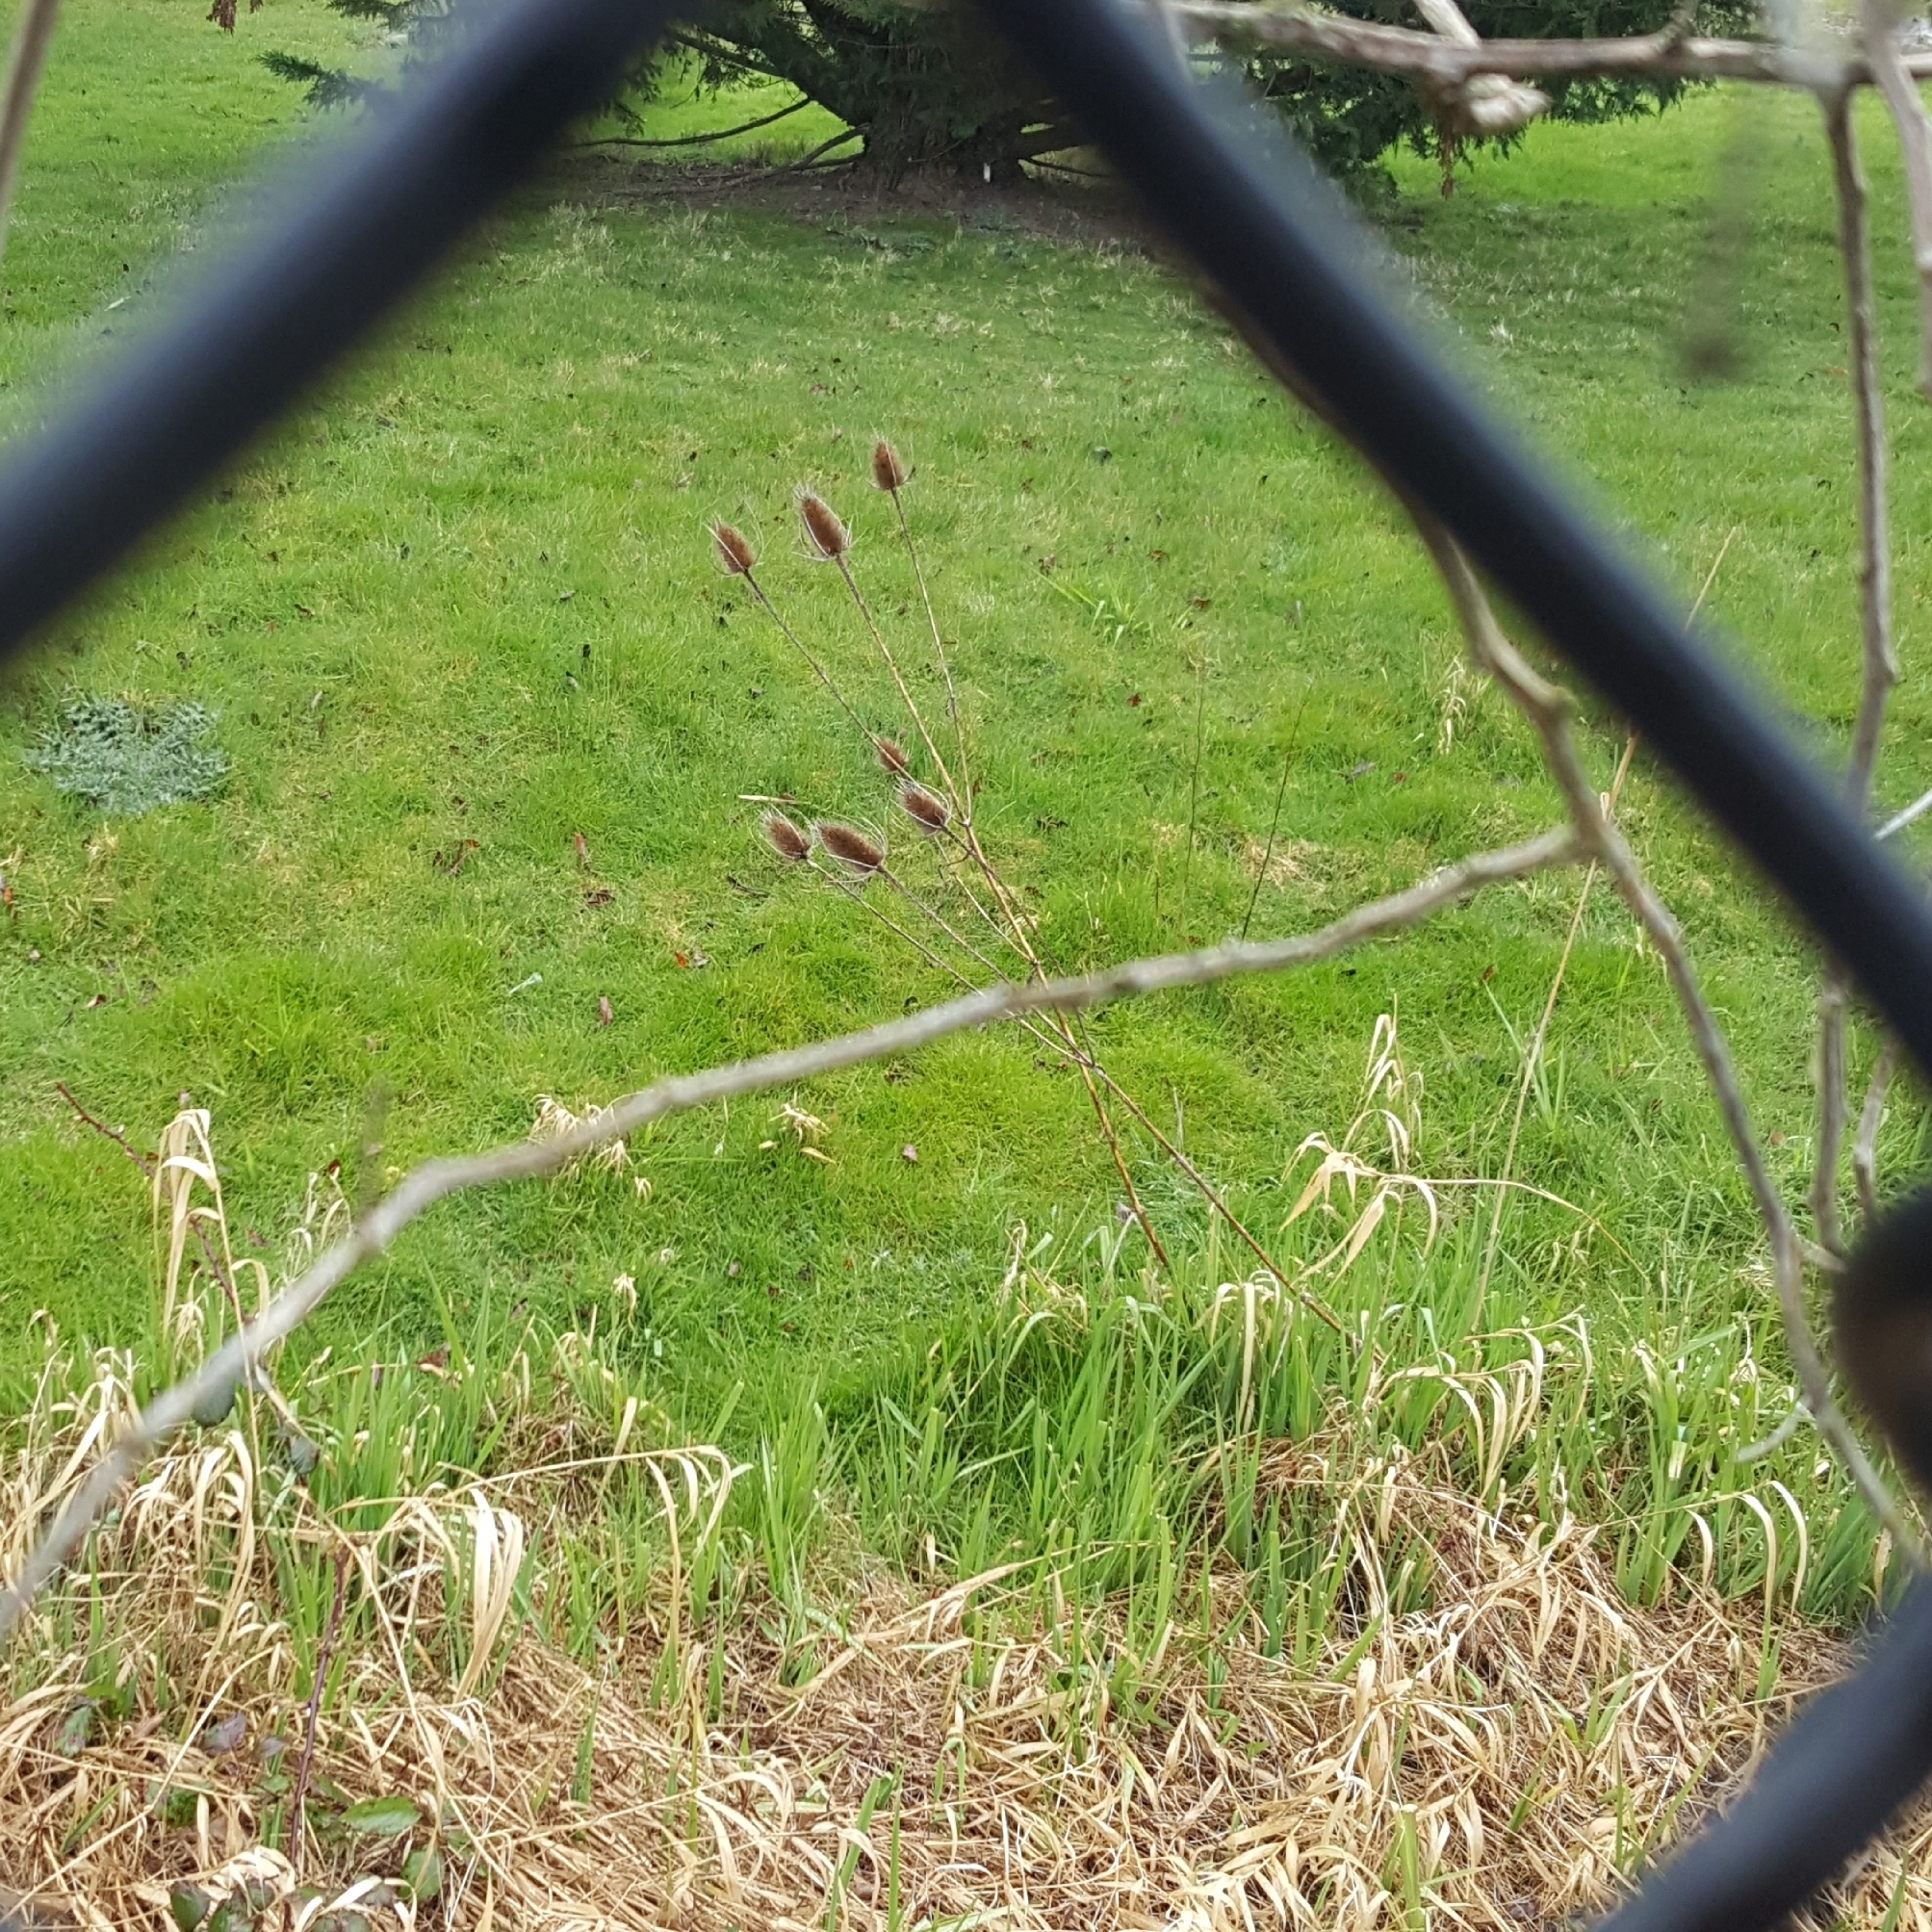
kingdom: Plantae
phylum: Tracheophyta
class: Magnoliopsida
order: Dipsacales
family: Caprifoliaceae
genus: Dipsacus
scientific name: Dipsacus fullonum
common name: Teasel
